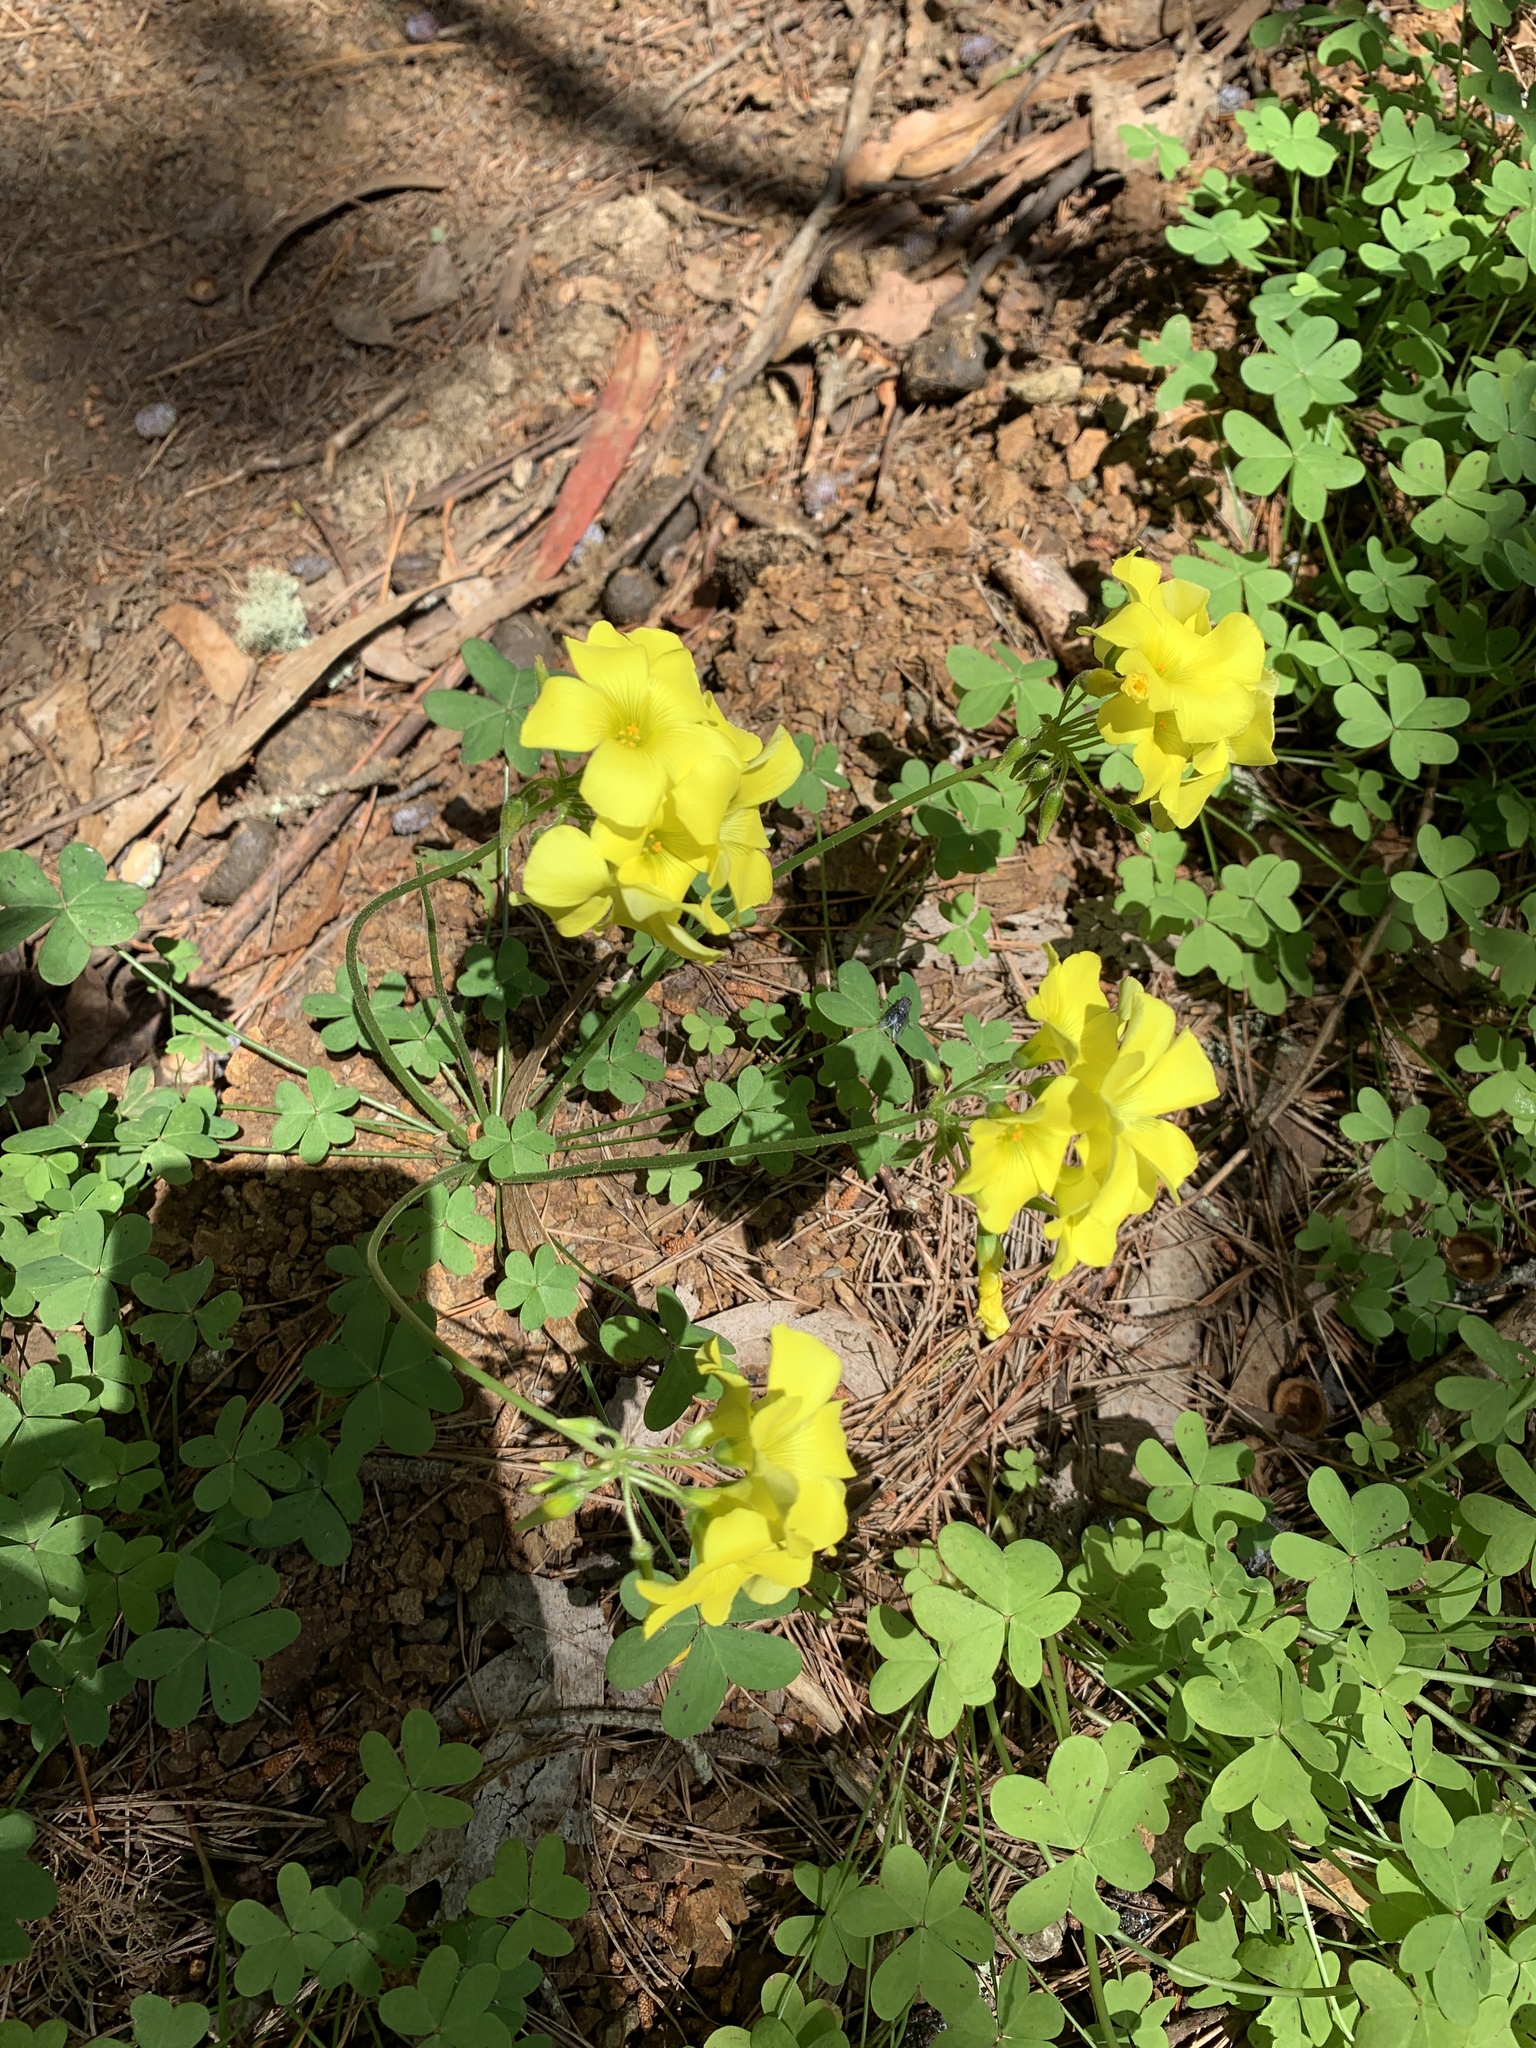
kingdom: Plantae
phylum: Tracheophyta
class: Magnoliopsida
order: Oxalidales
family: Oxalidaceae
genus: Oxalis
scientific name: Oxalis pes-caprae
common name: Bermuda-buttercup
